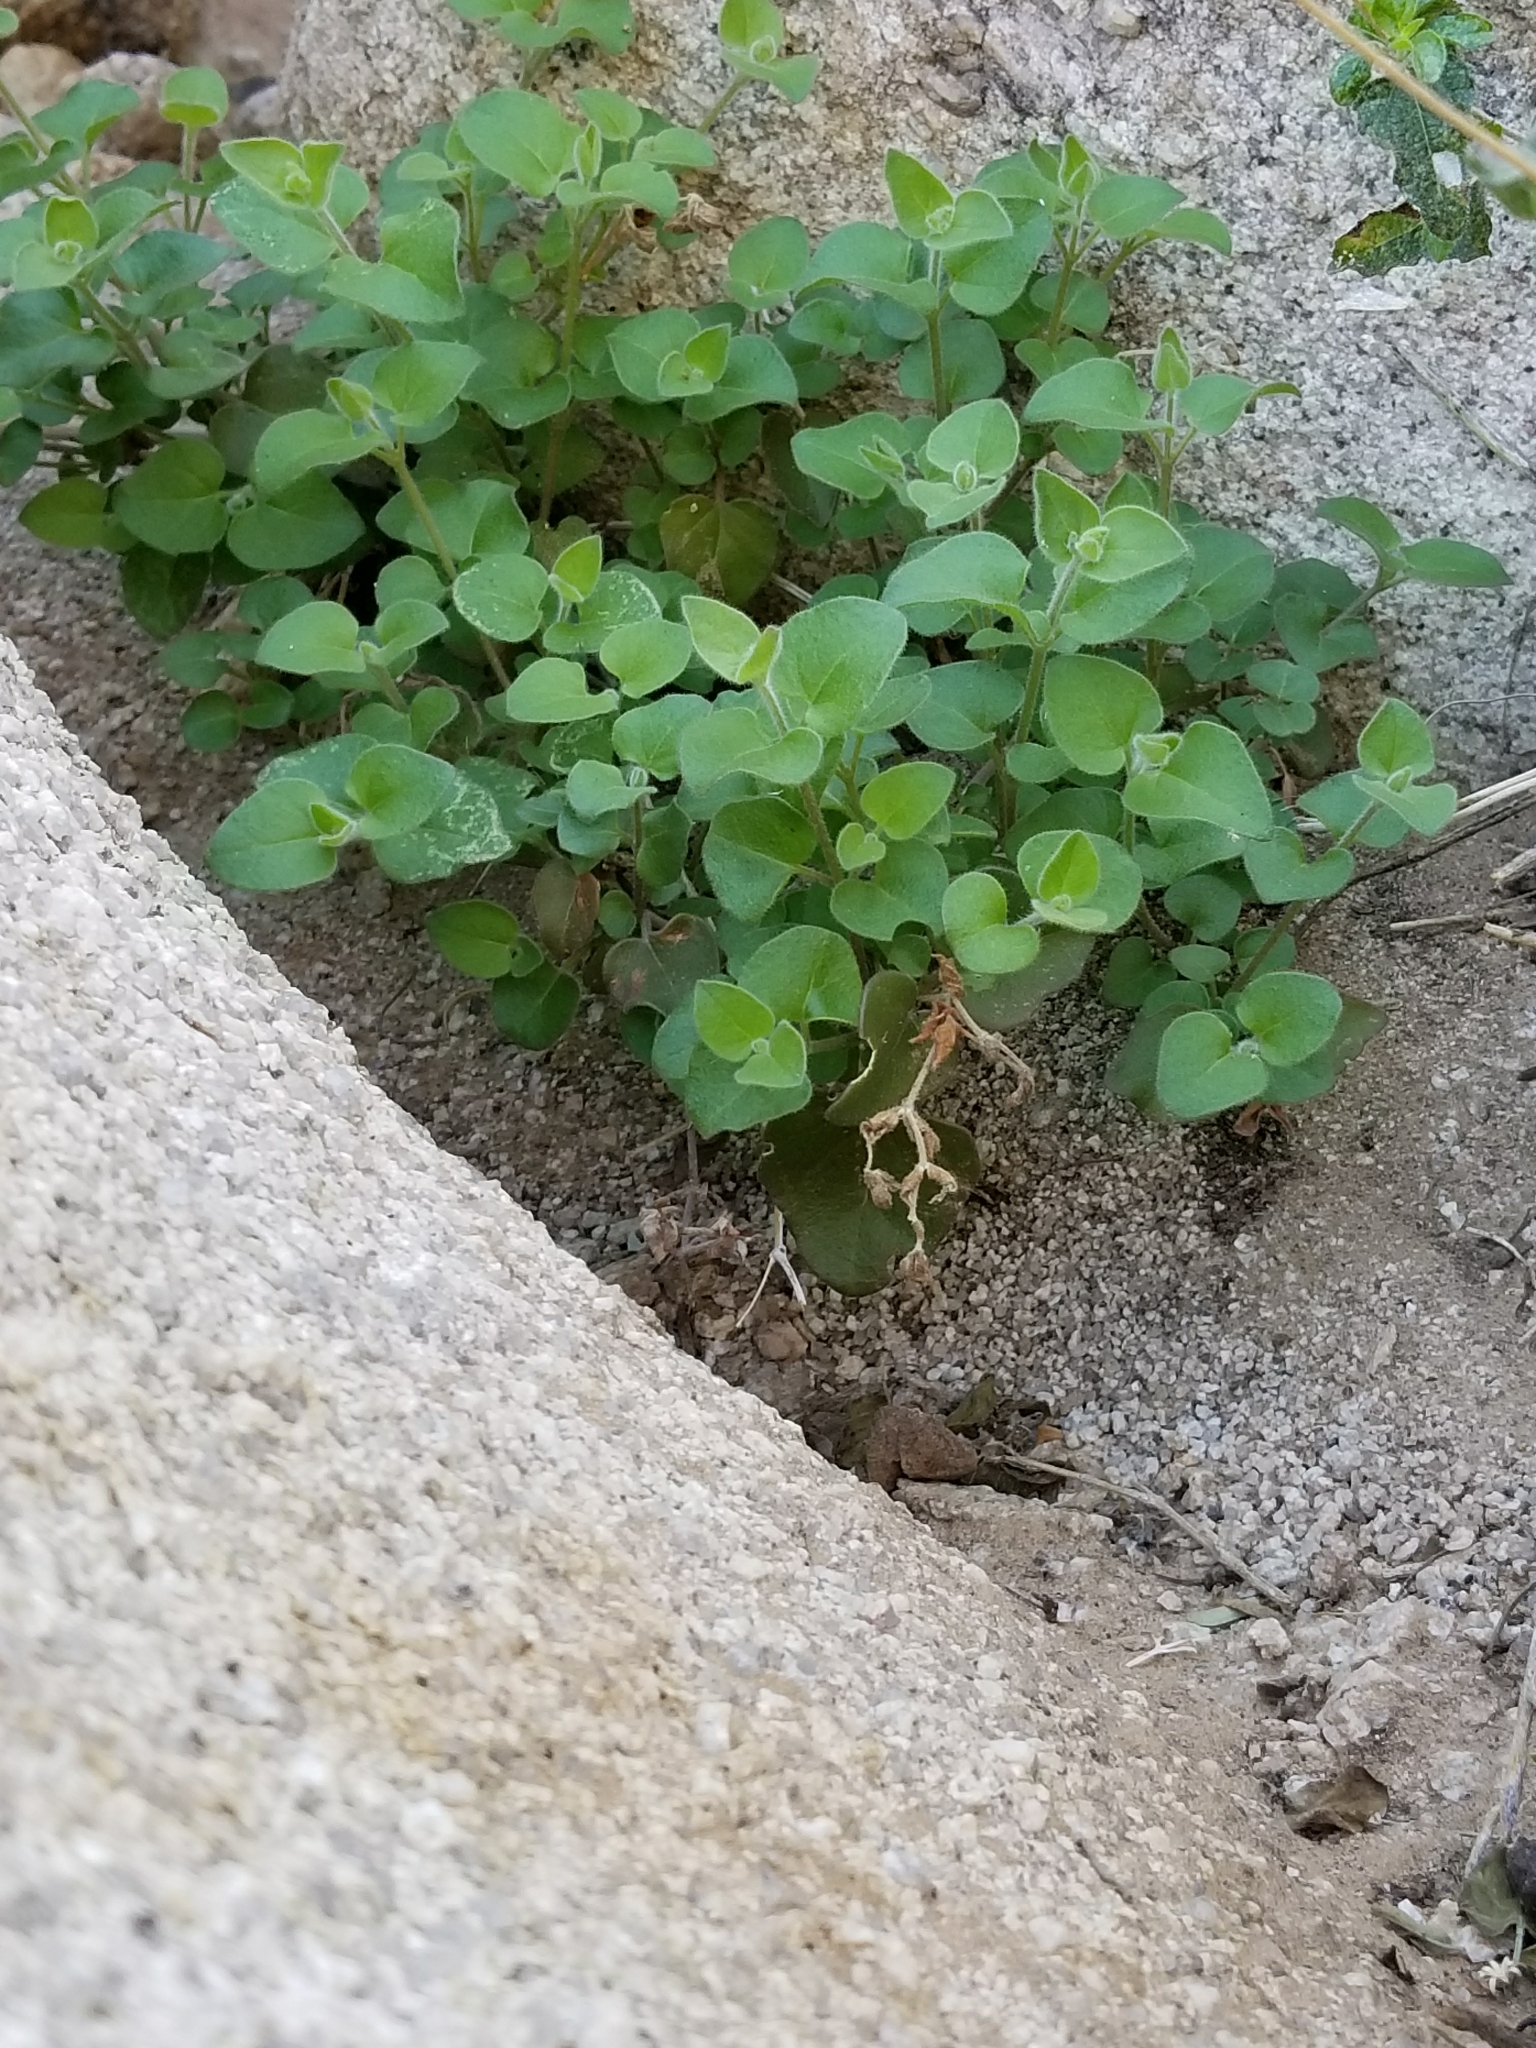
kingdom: Plantae
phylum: Tracheophyta
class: Magnoliopsida
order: Caryophyllales
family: Nyctaginaceae
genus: Mirabilis
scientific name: Mirabilis laevis
